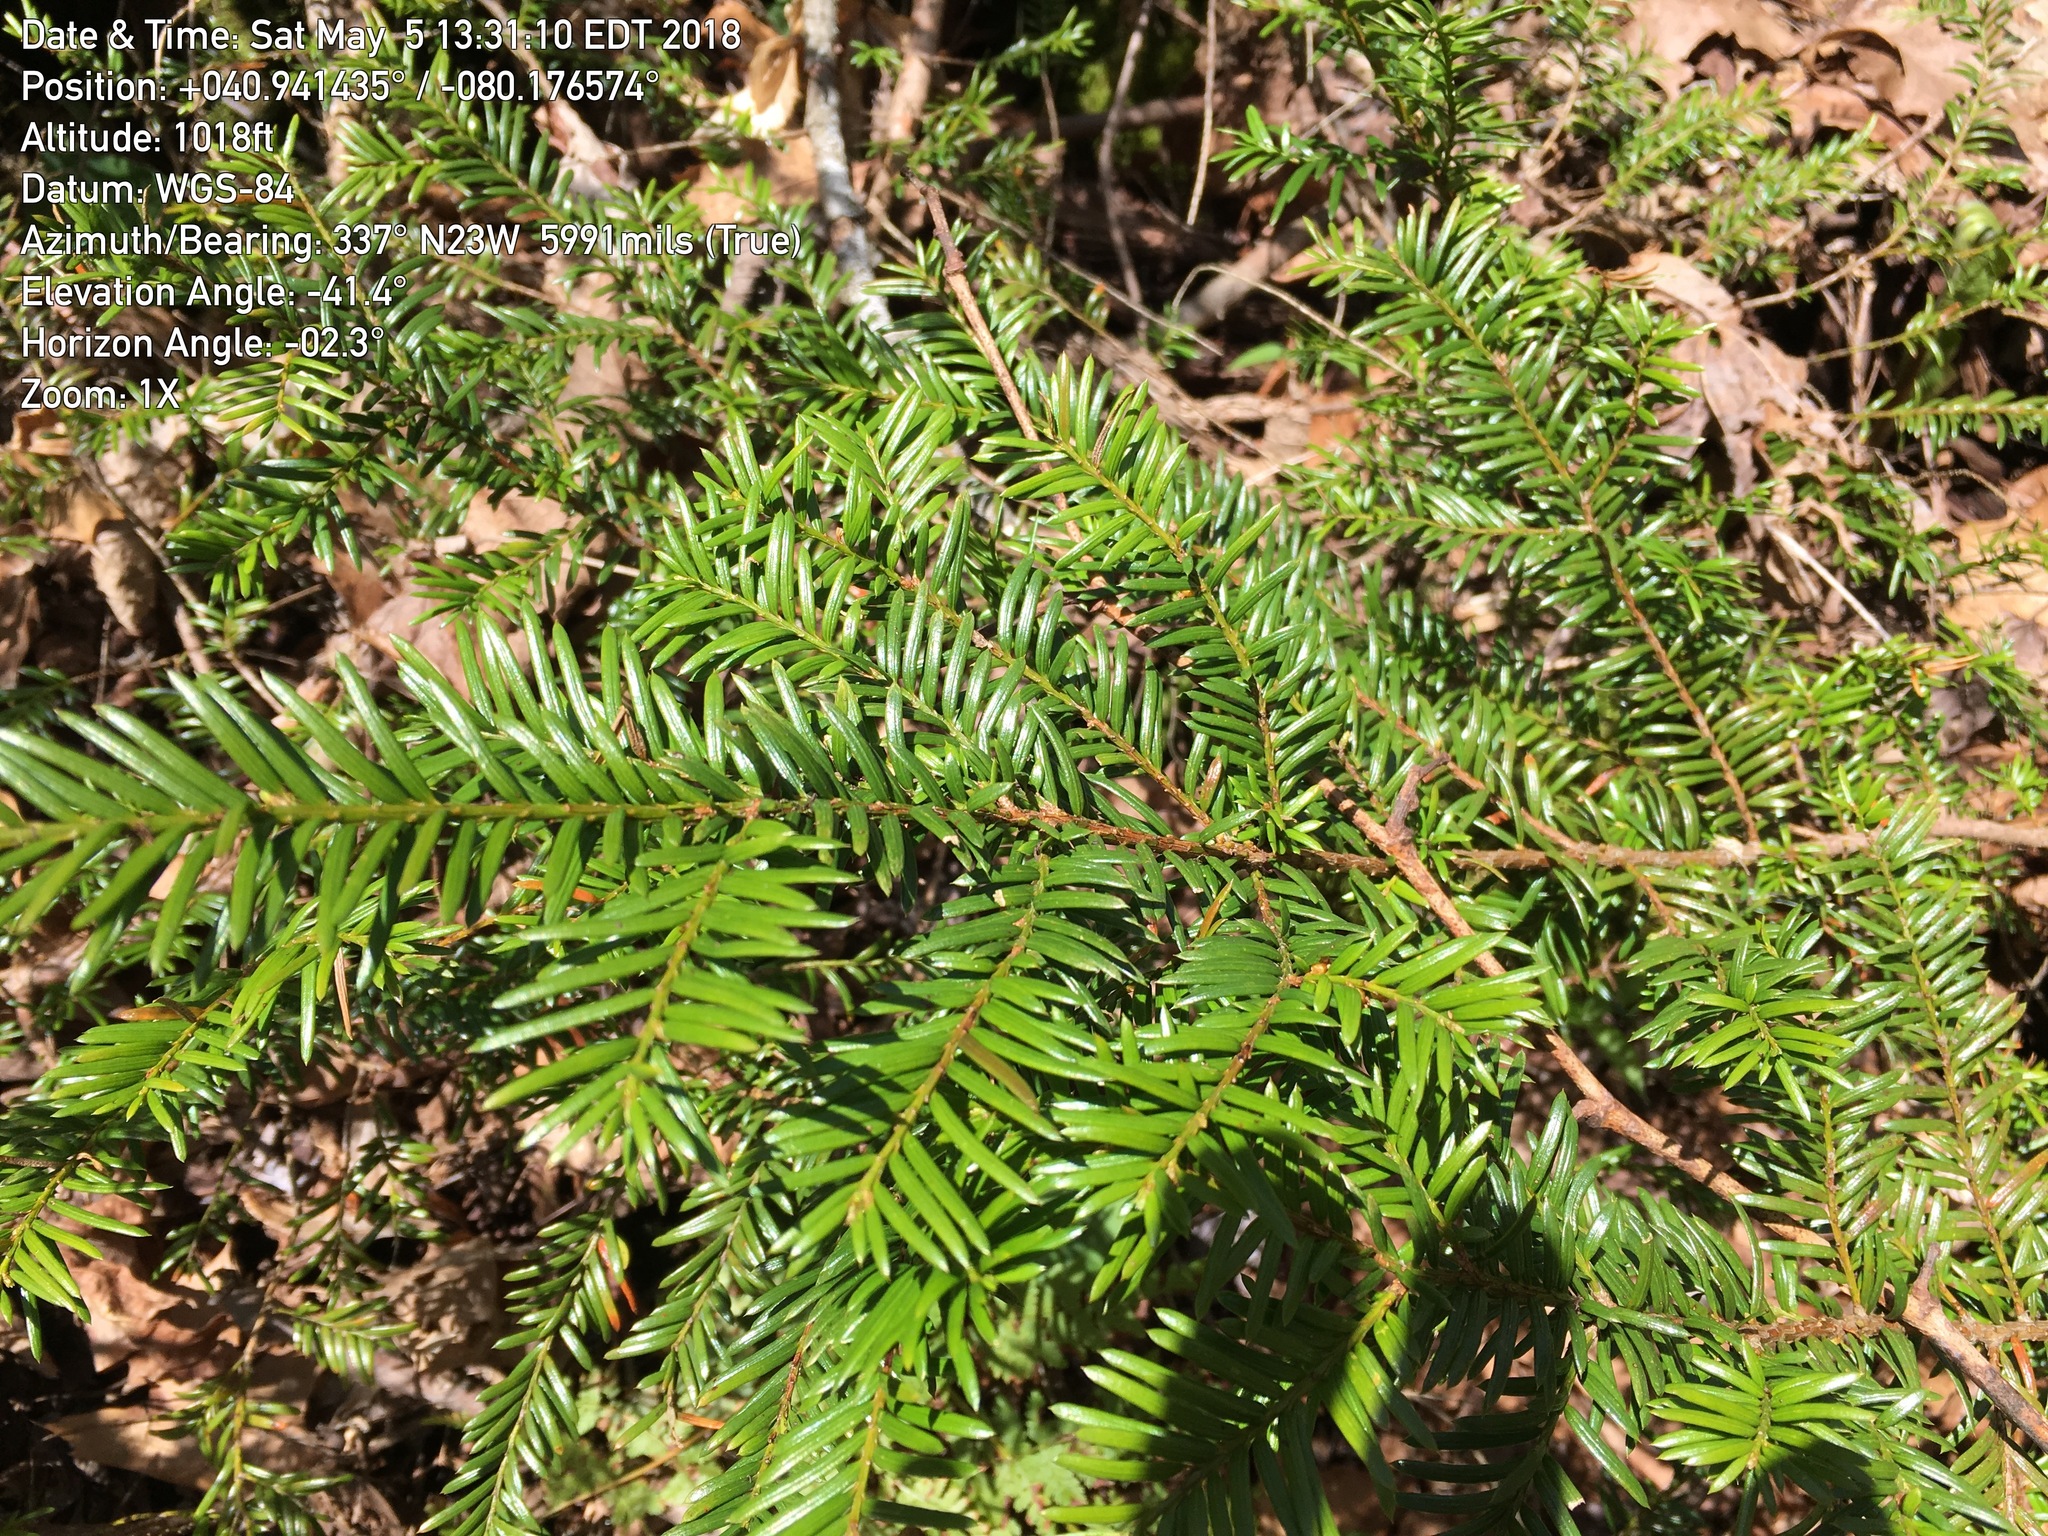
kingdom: Plantae
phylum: Tracheophyta
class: Pinopsida
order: Pinales
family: Taxaceae
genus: Taxus
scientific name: Taxus canadensis
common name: American yew
